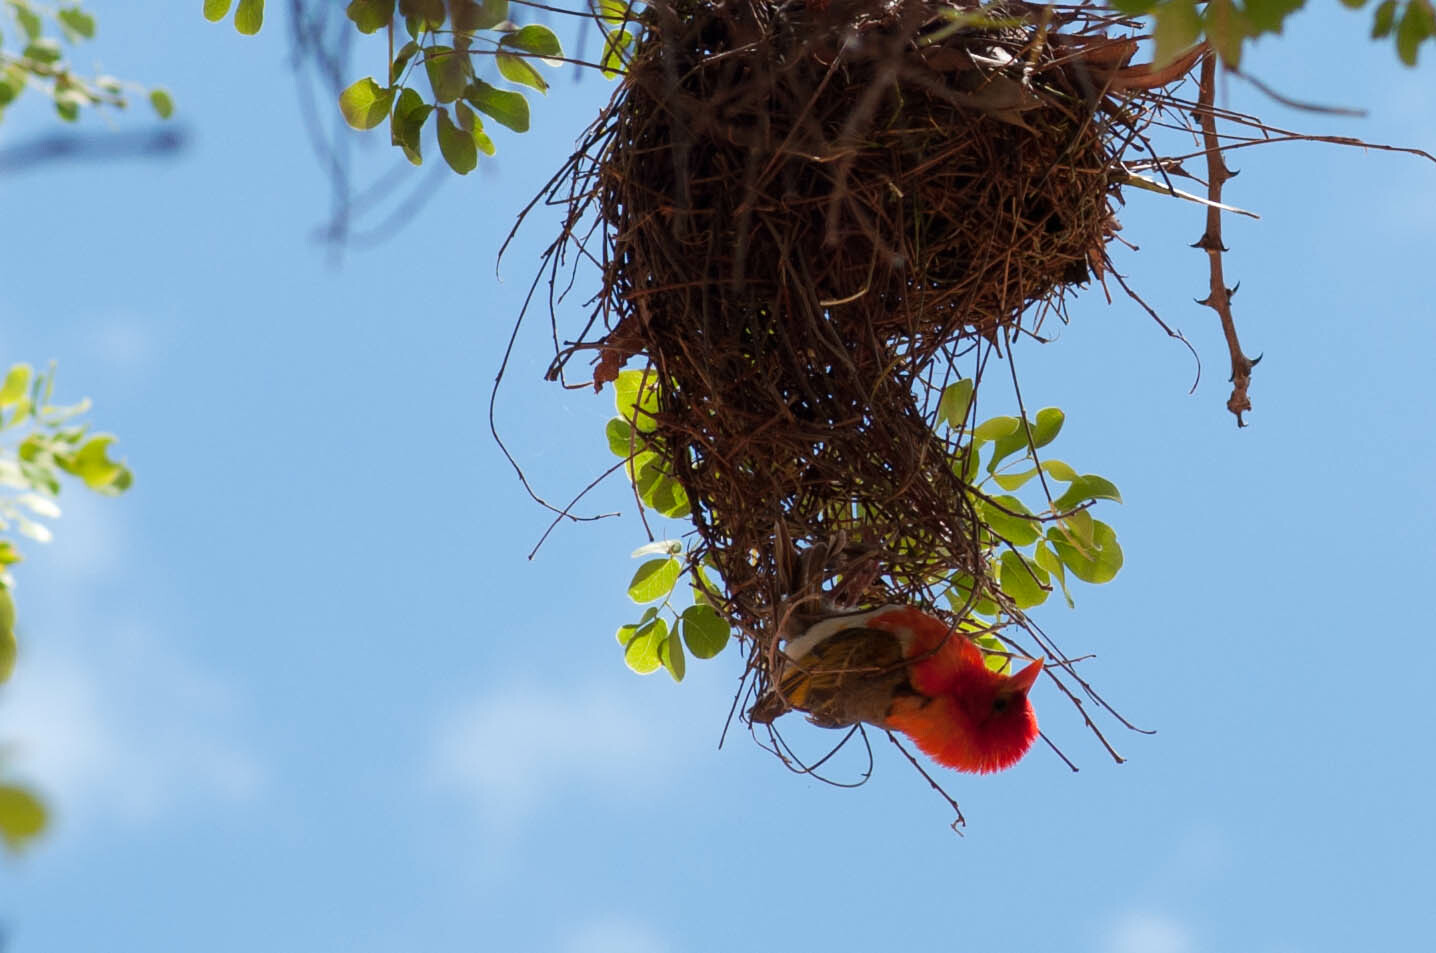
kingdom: Animalia
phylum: Chordata
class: Aves
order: Passeriformes
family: Ploceidae
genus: Anaplectes
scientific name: Anaplectes rubriceps
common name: Red-headed weaver
